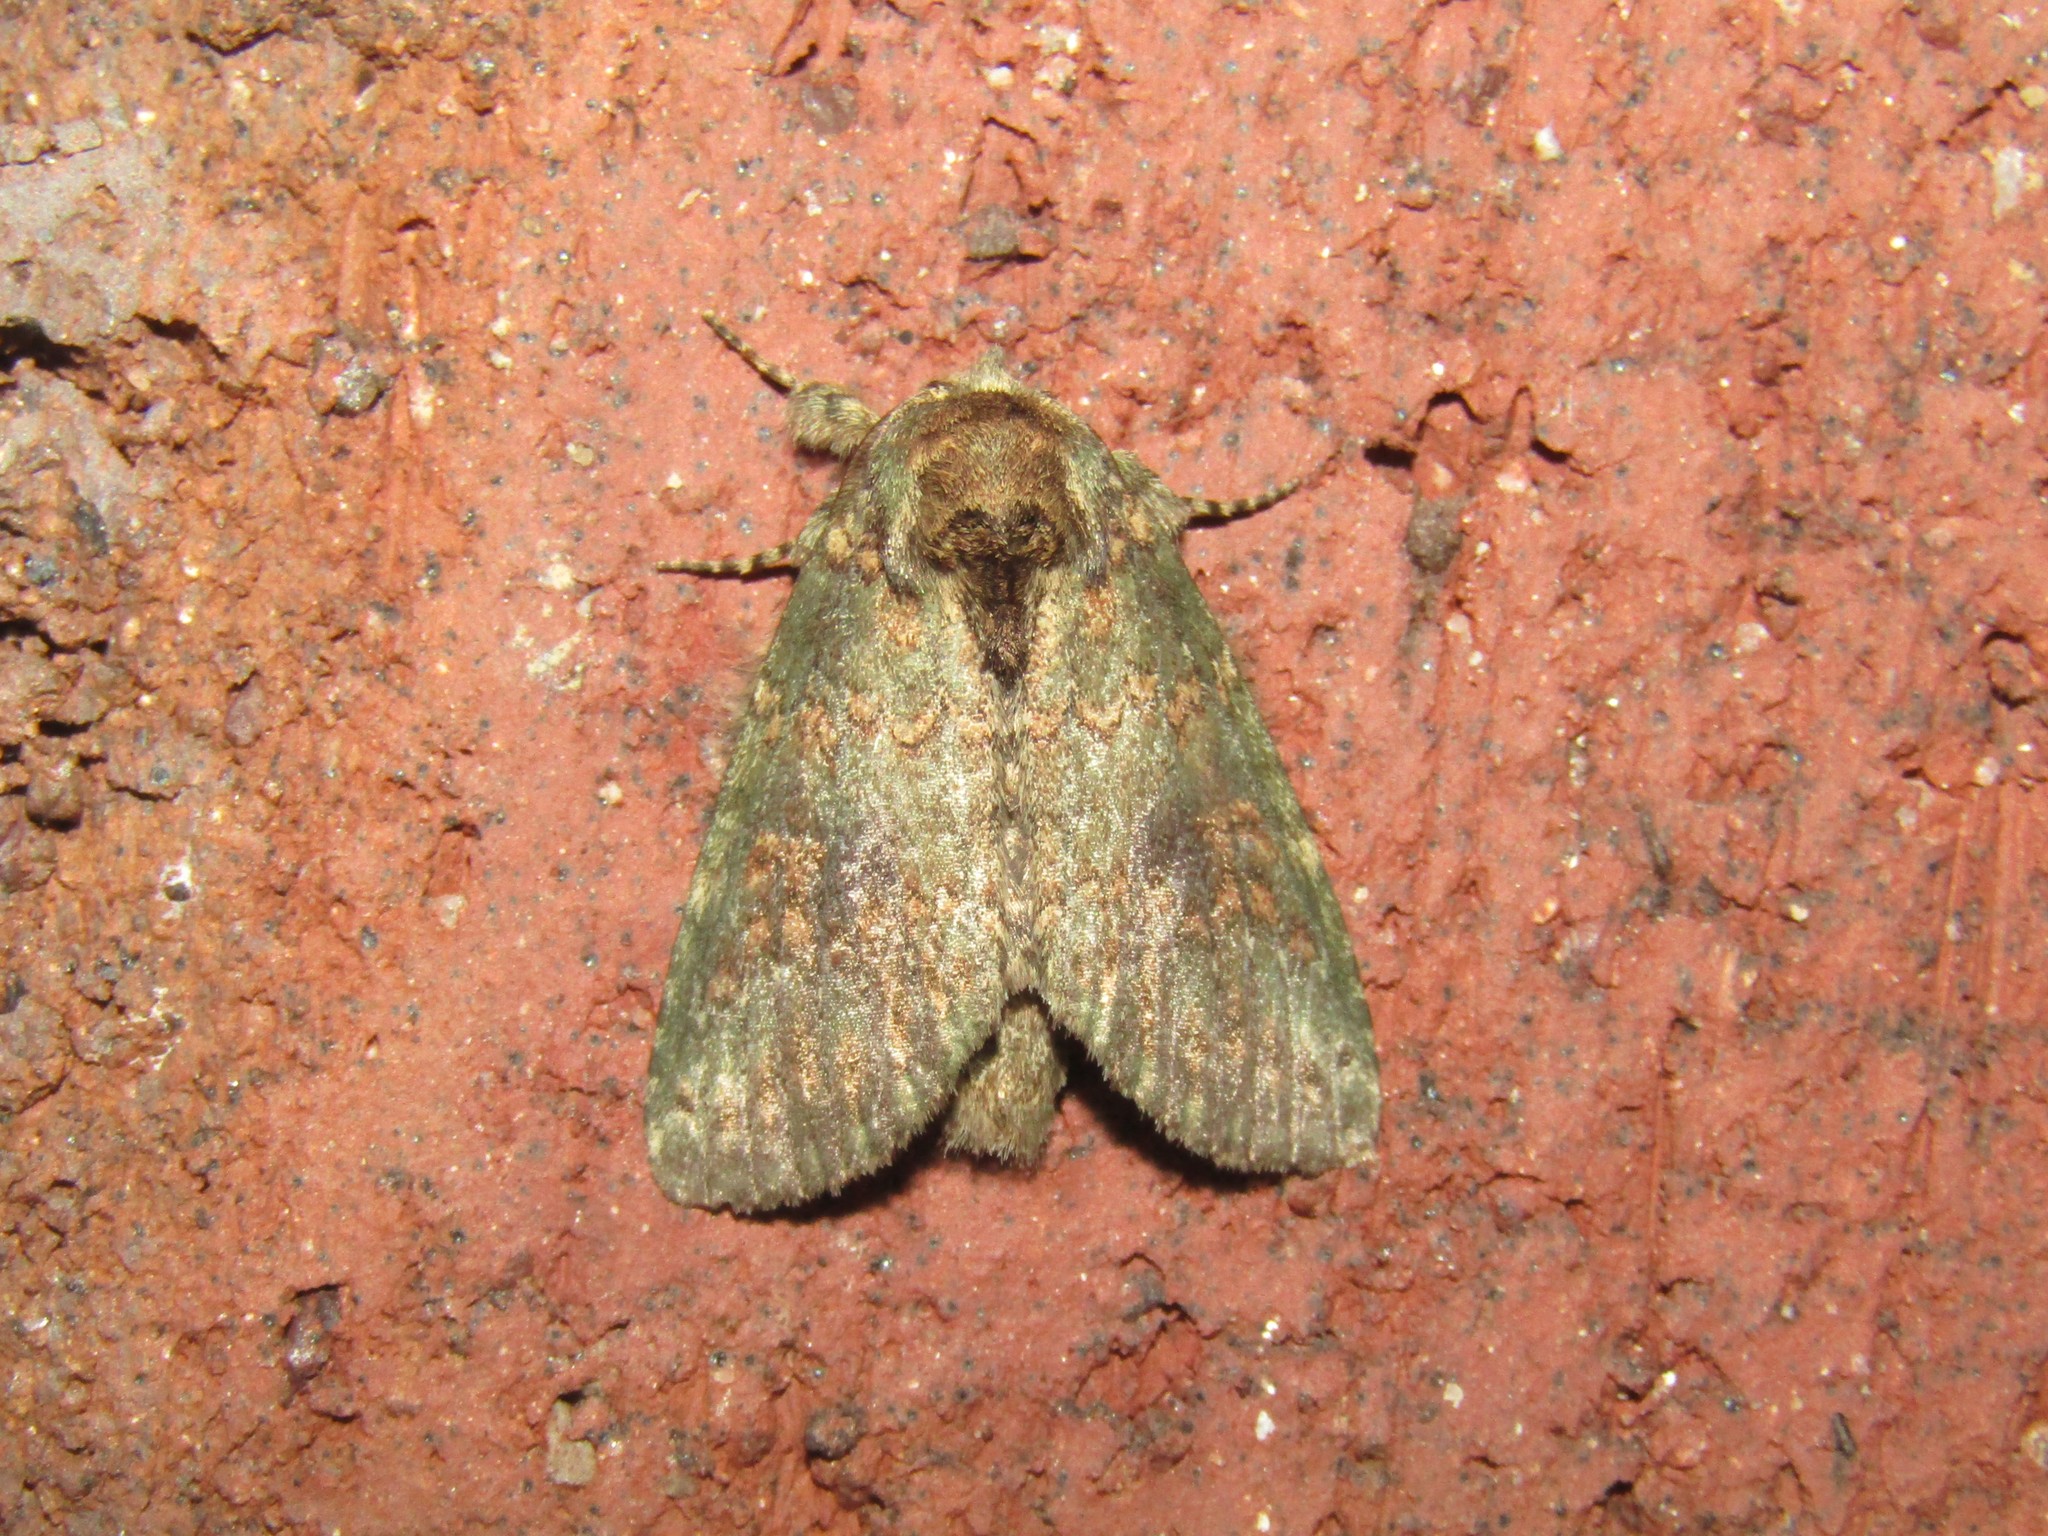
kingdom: Animalia
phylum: Arthropoda
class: Insecta
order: Lepidoptera
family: Notodontidae
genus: Disphragis
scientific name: Disphragis Cecrita biundata
